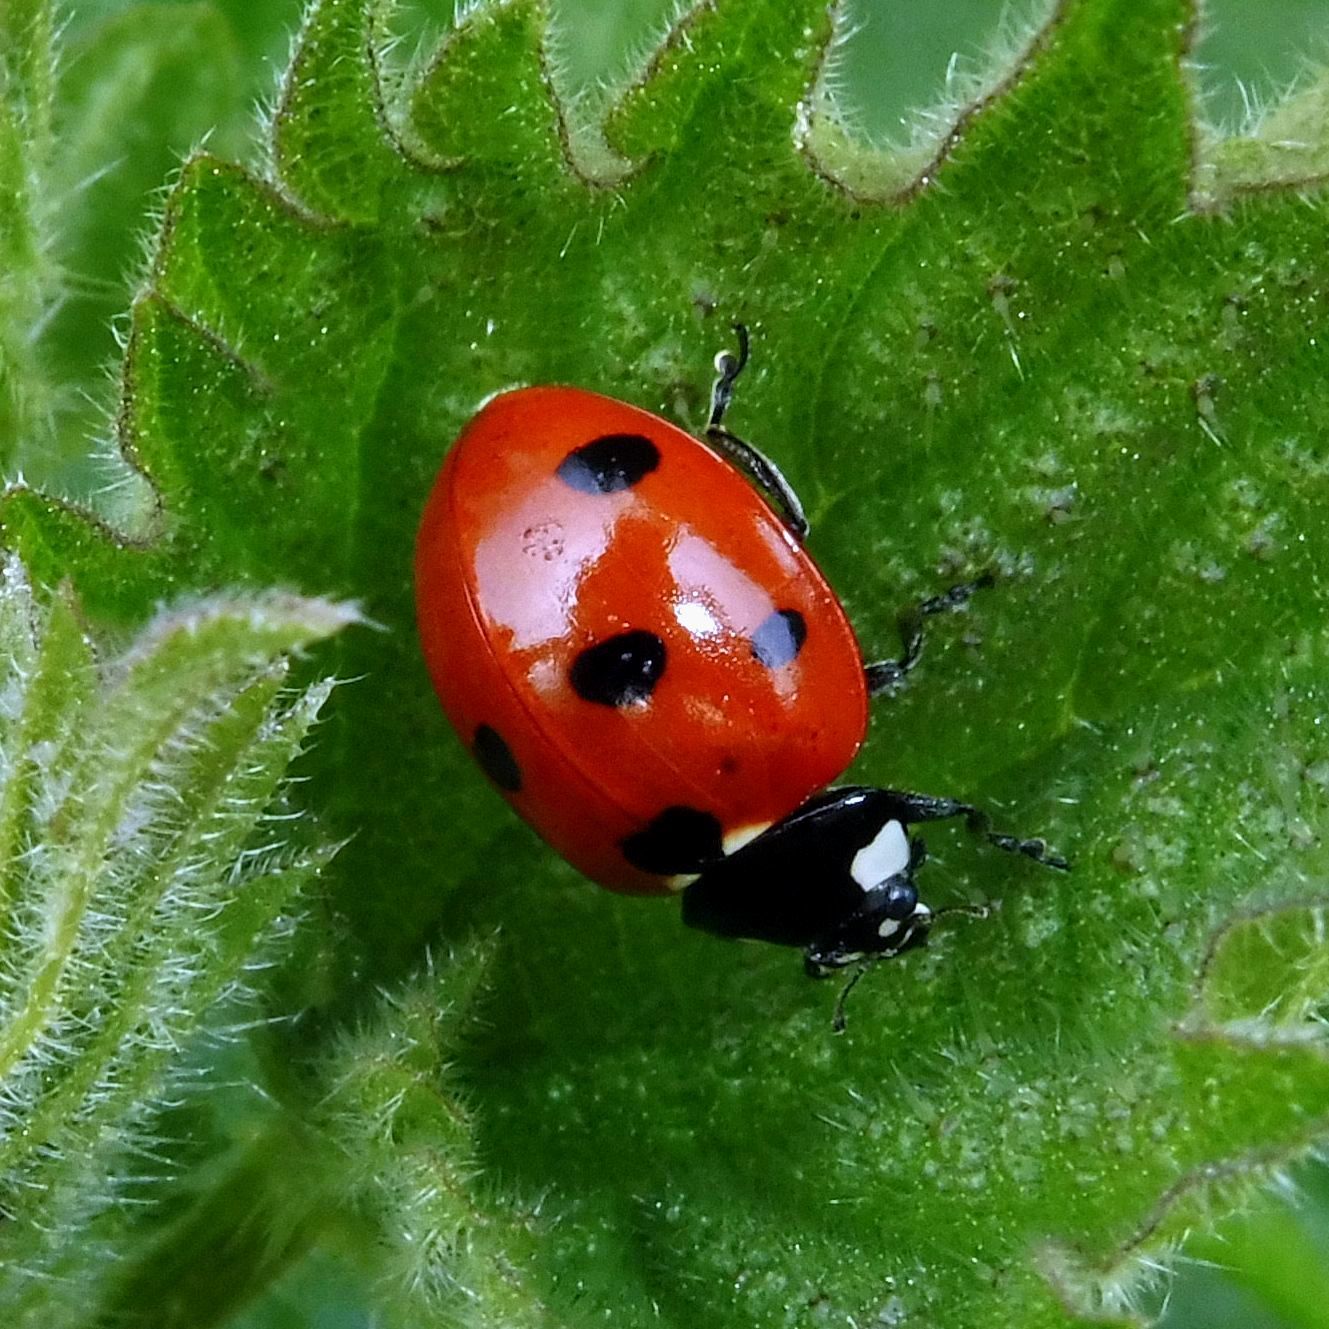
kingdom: Animalia
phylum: Arthropoda
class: Insecta
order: Coleoptera
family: Coccinellidae
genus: Coccinella
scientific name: Coccinella septempunctata
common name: Sevenspotted lady beetle
